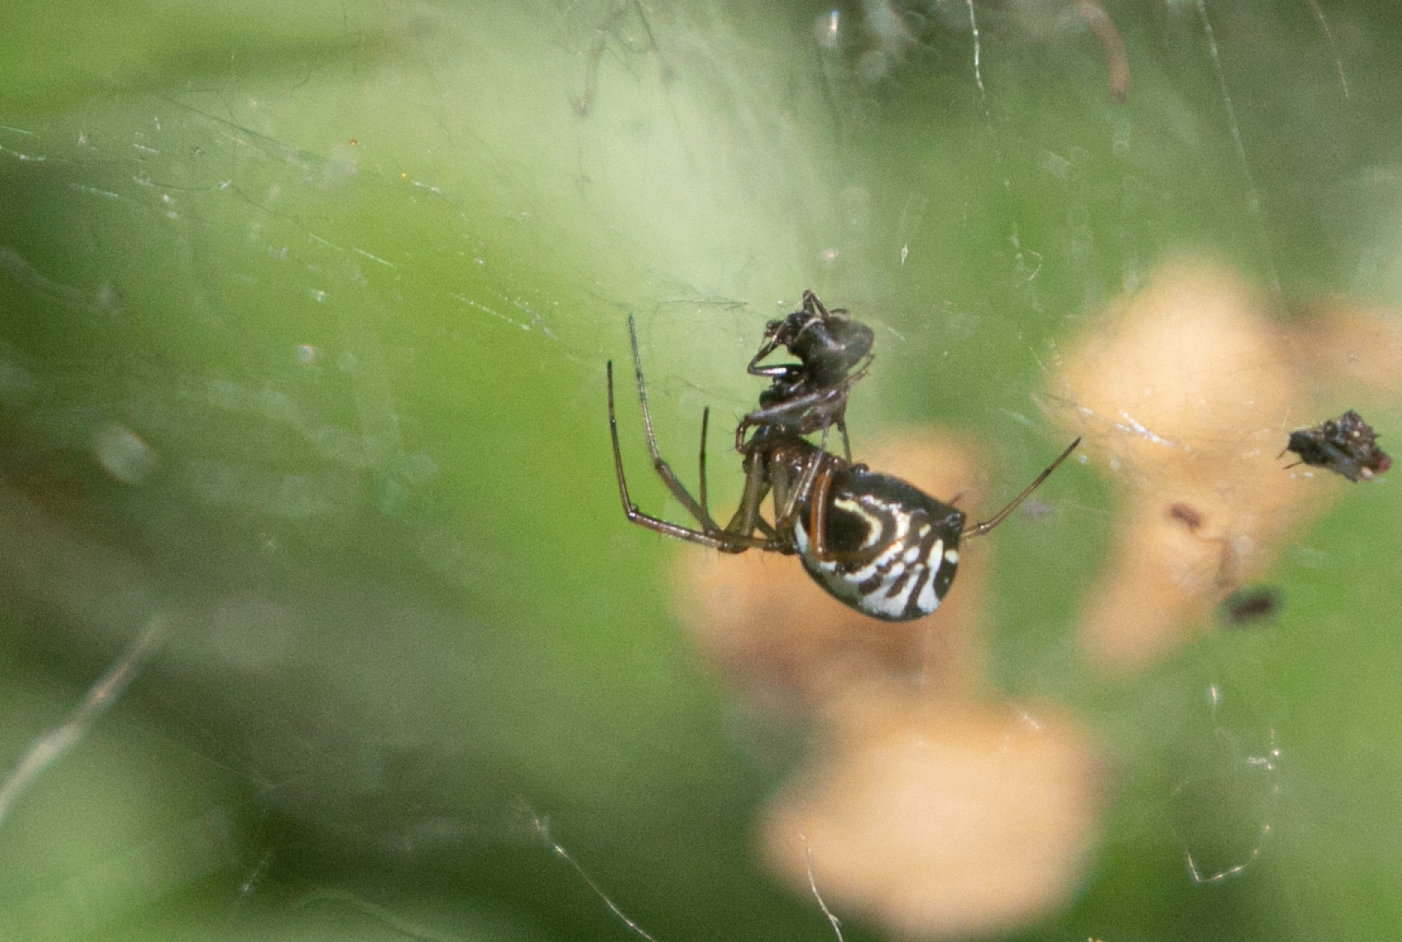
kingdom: Animalia
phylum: Arthropoda
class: Arachnida
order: Araneae
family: Linyphiidae
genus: Frontinellina
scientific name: Frontinellina frutetorum
